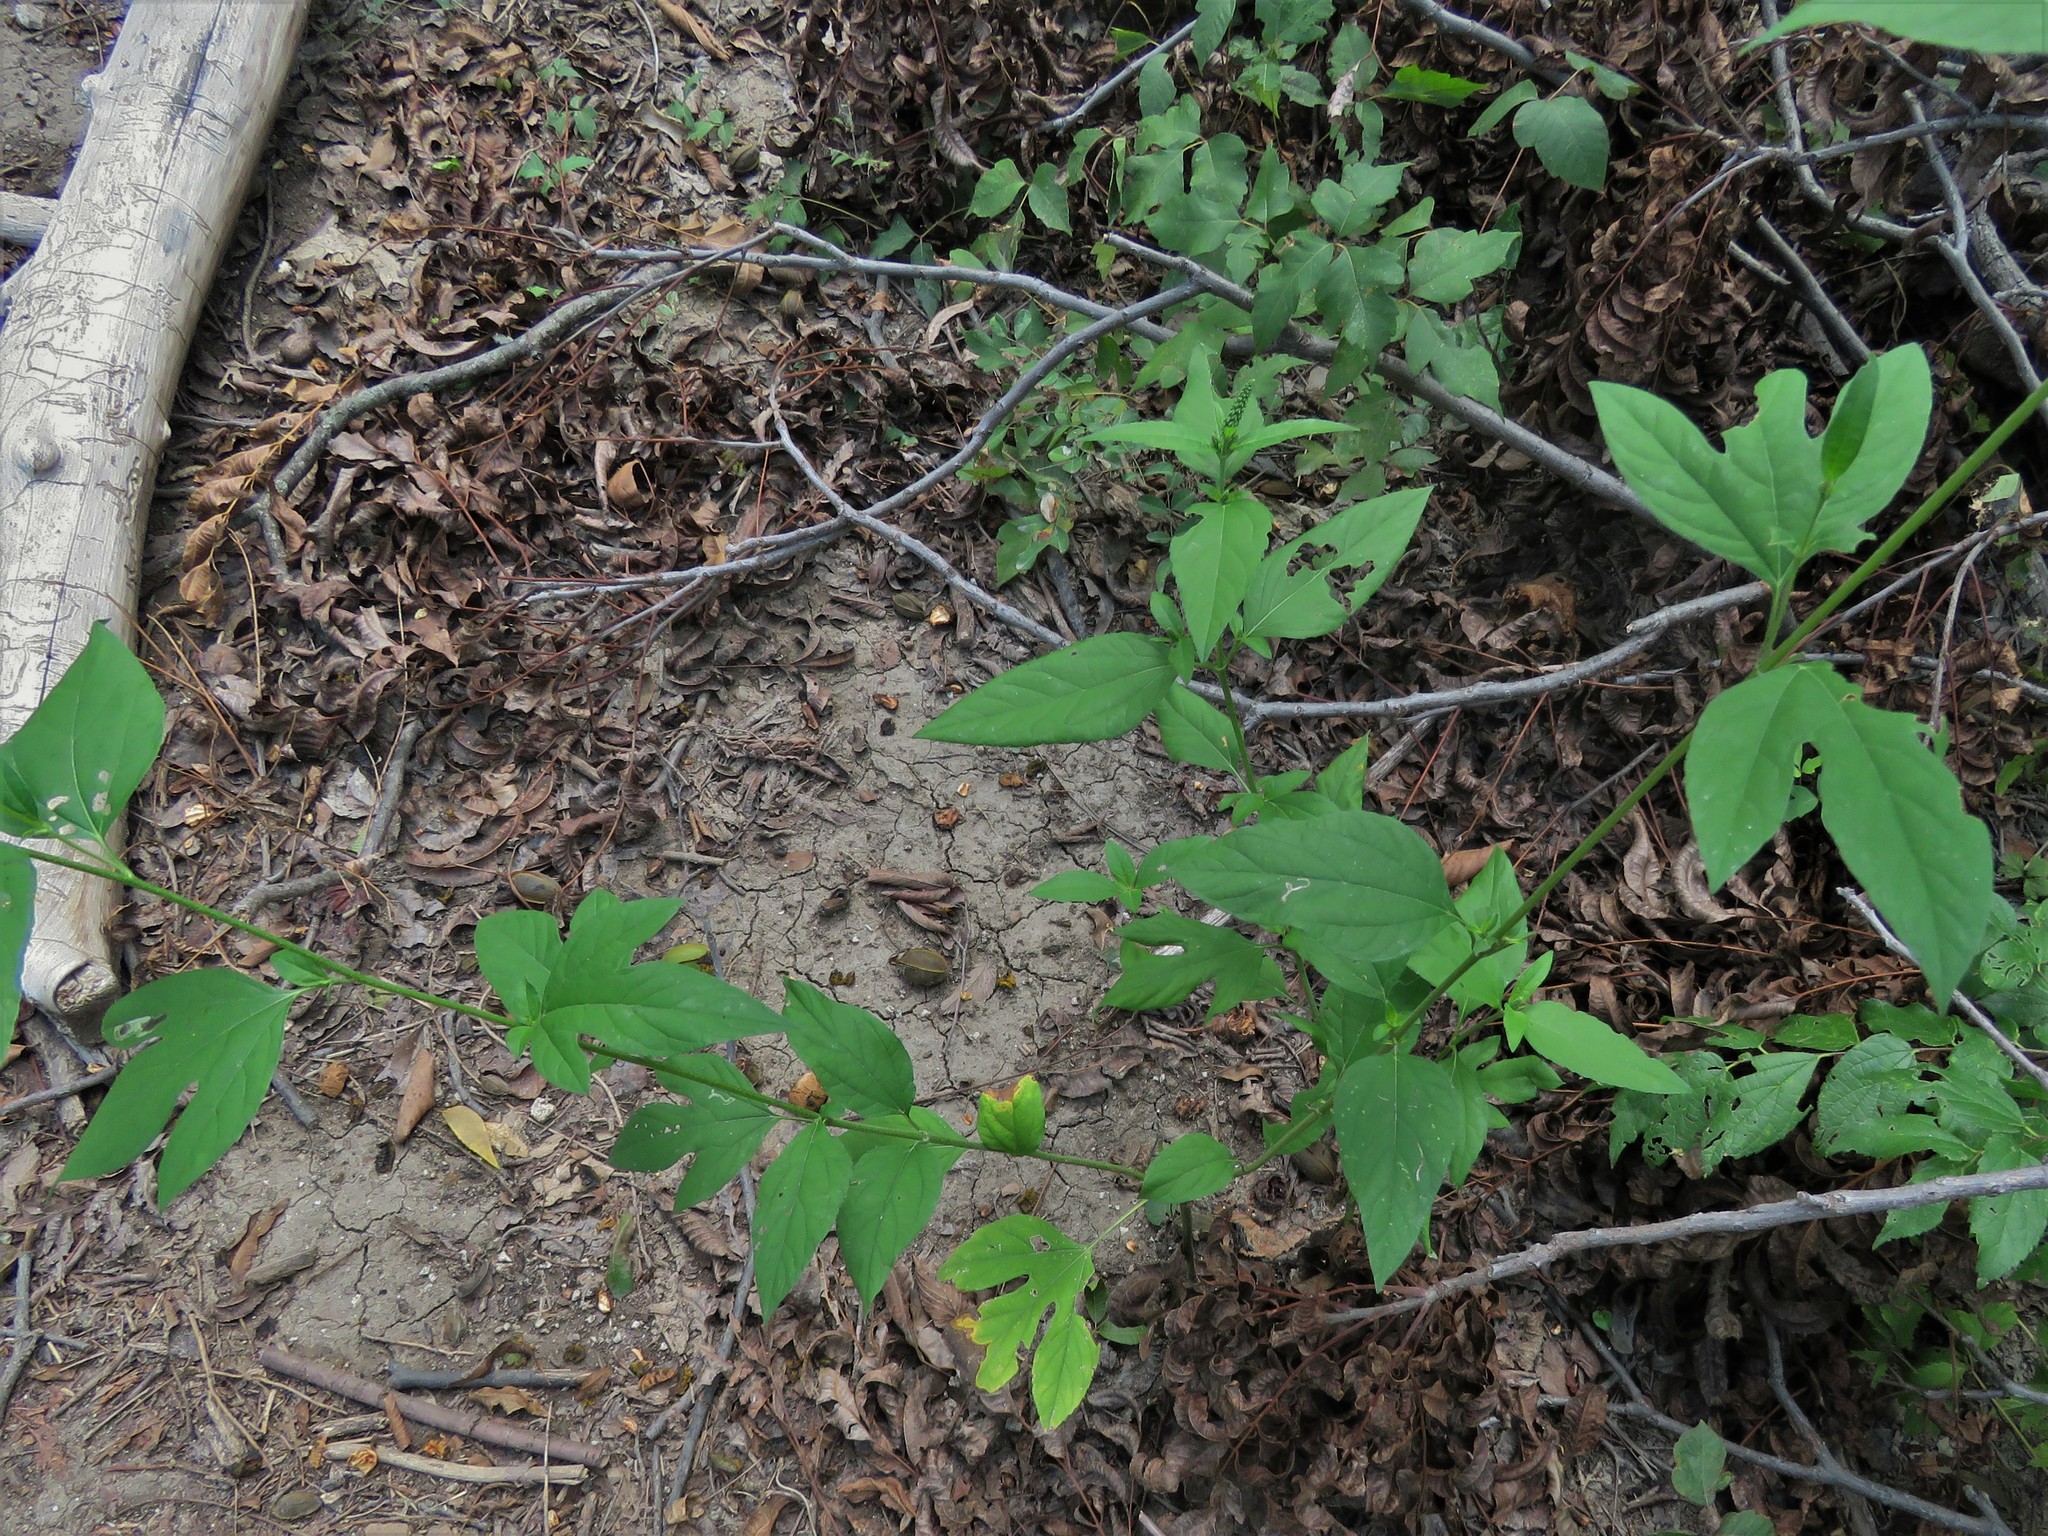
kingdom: Plantae
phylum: Tracheophyta
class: Magnoliopsida
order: Asterales
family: Asteraceae
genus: Ambrosia
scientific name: Ambrosia trifida
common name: Giant ragweed
